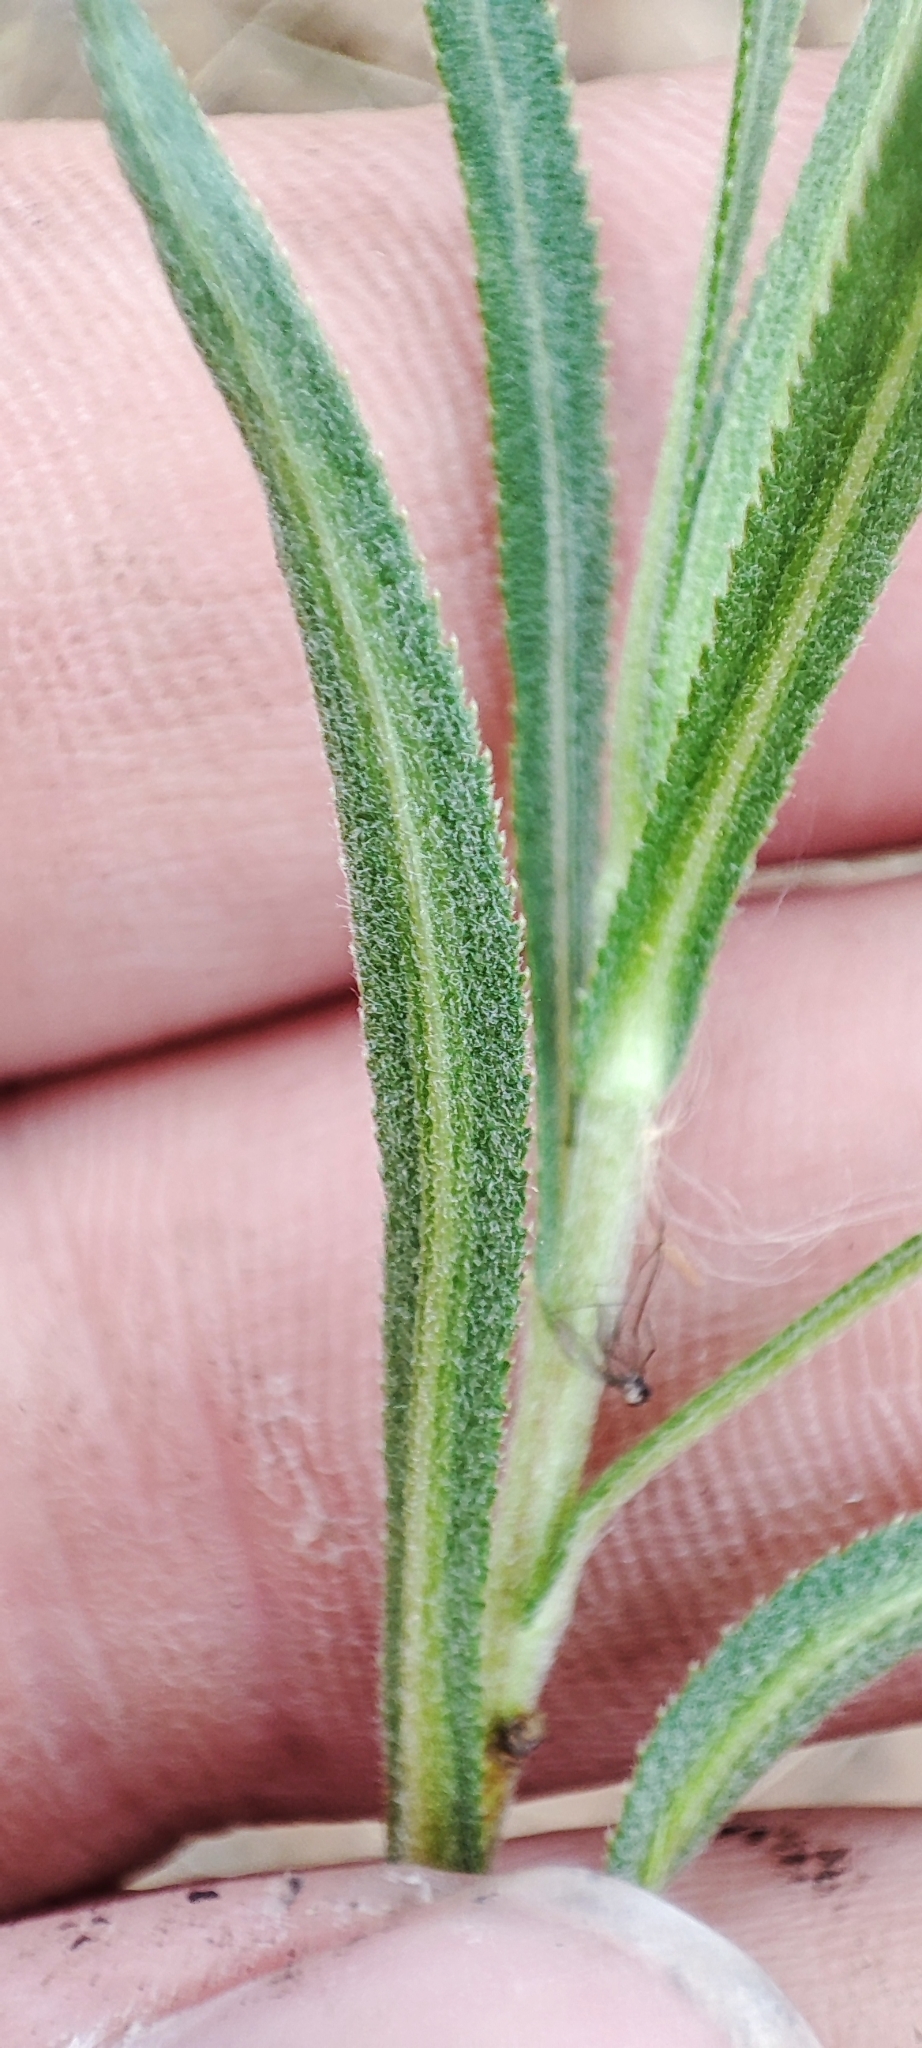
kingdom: Plantae
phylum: Tracheophyta
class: Magnoliopsida
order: Asterales
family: Asteraceae
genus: Achillea
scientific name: Achillea salicifolia
